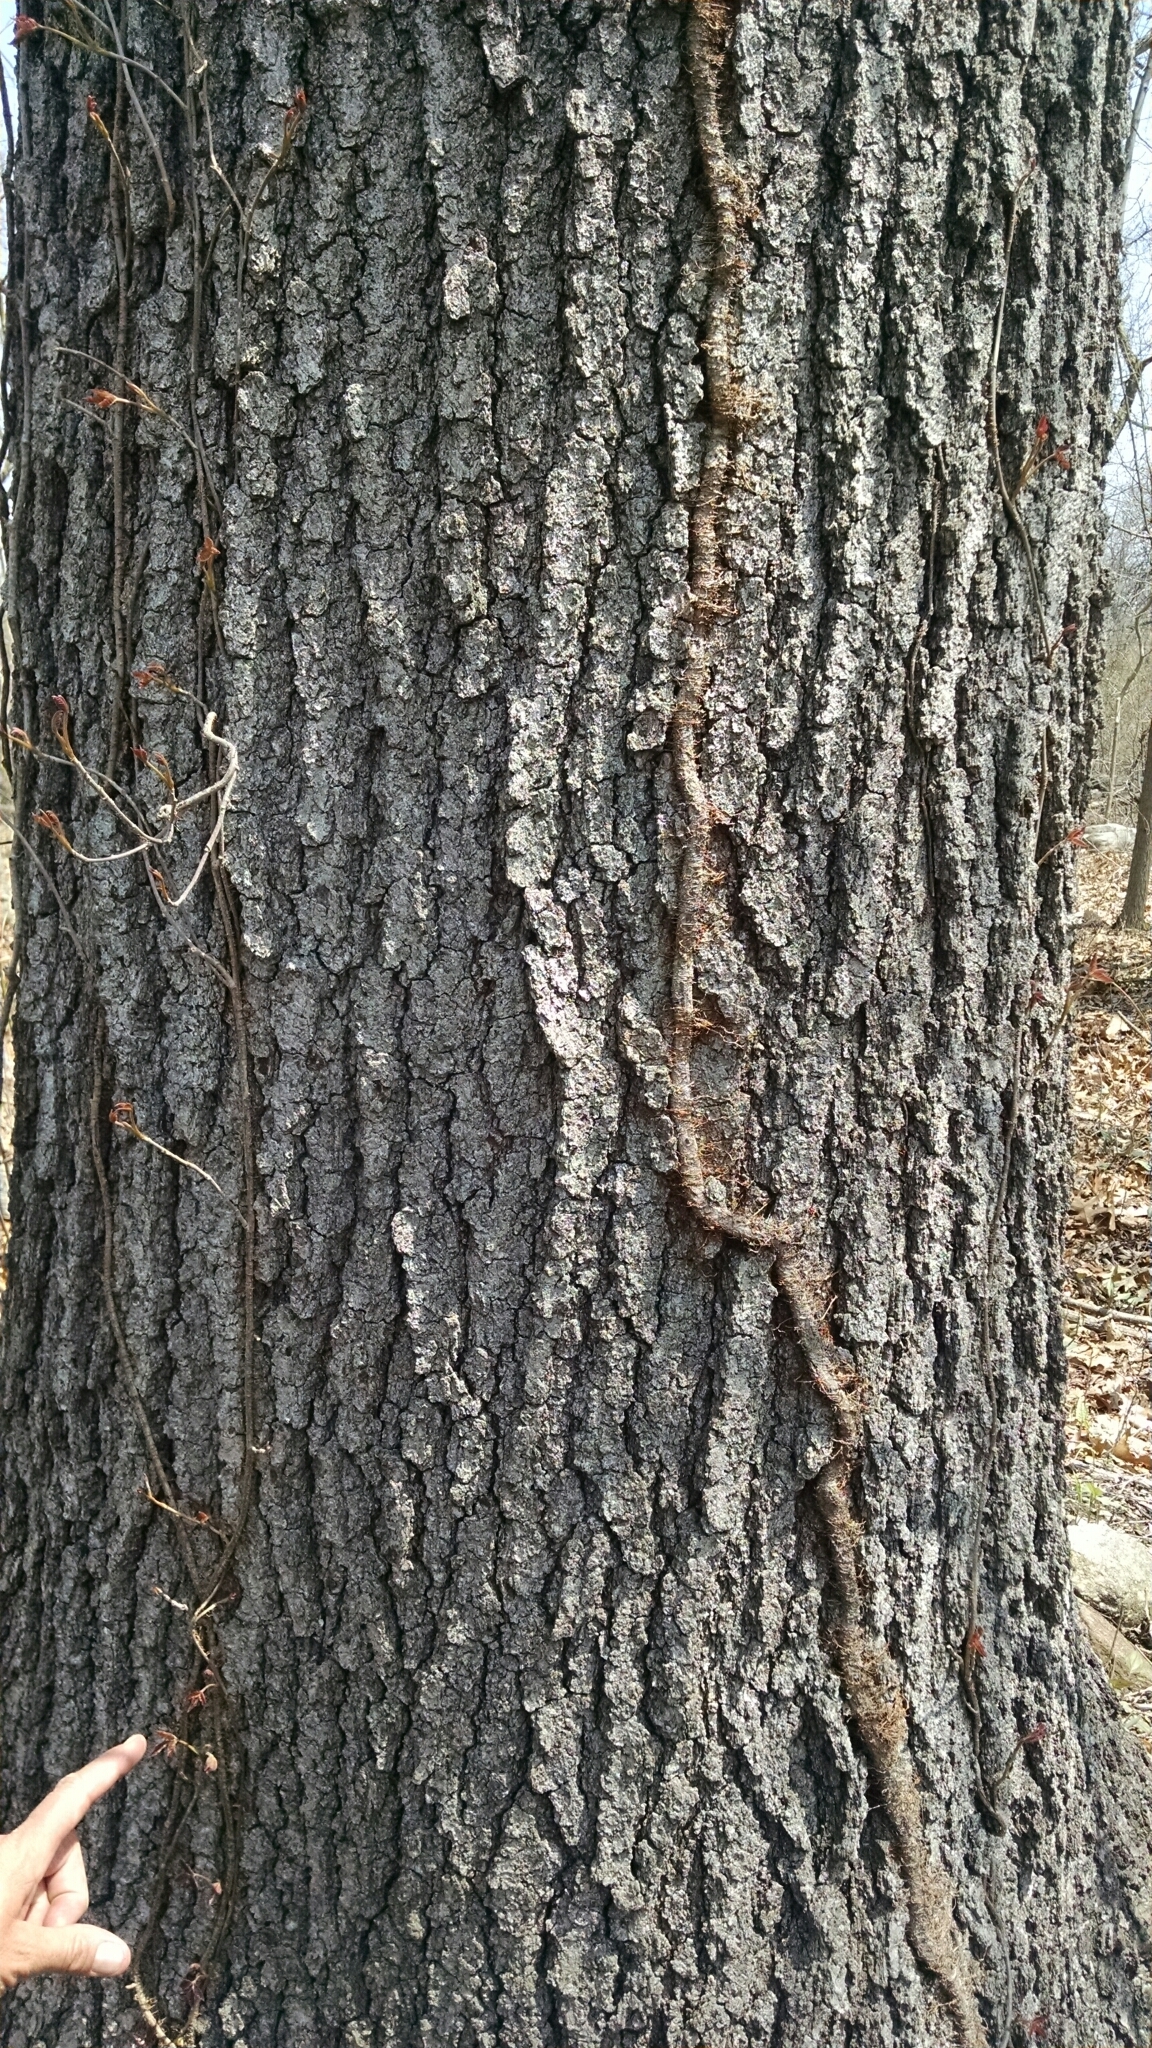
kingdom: Plantae
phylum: Tracheophyta
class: Magnoliopsida
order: Sapindales
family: Anacardiaceae
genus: Toxicodendron
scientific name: Toxicodendron radicans
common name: Poison ivy
